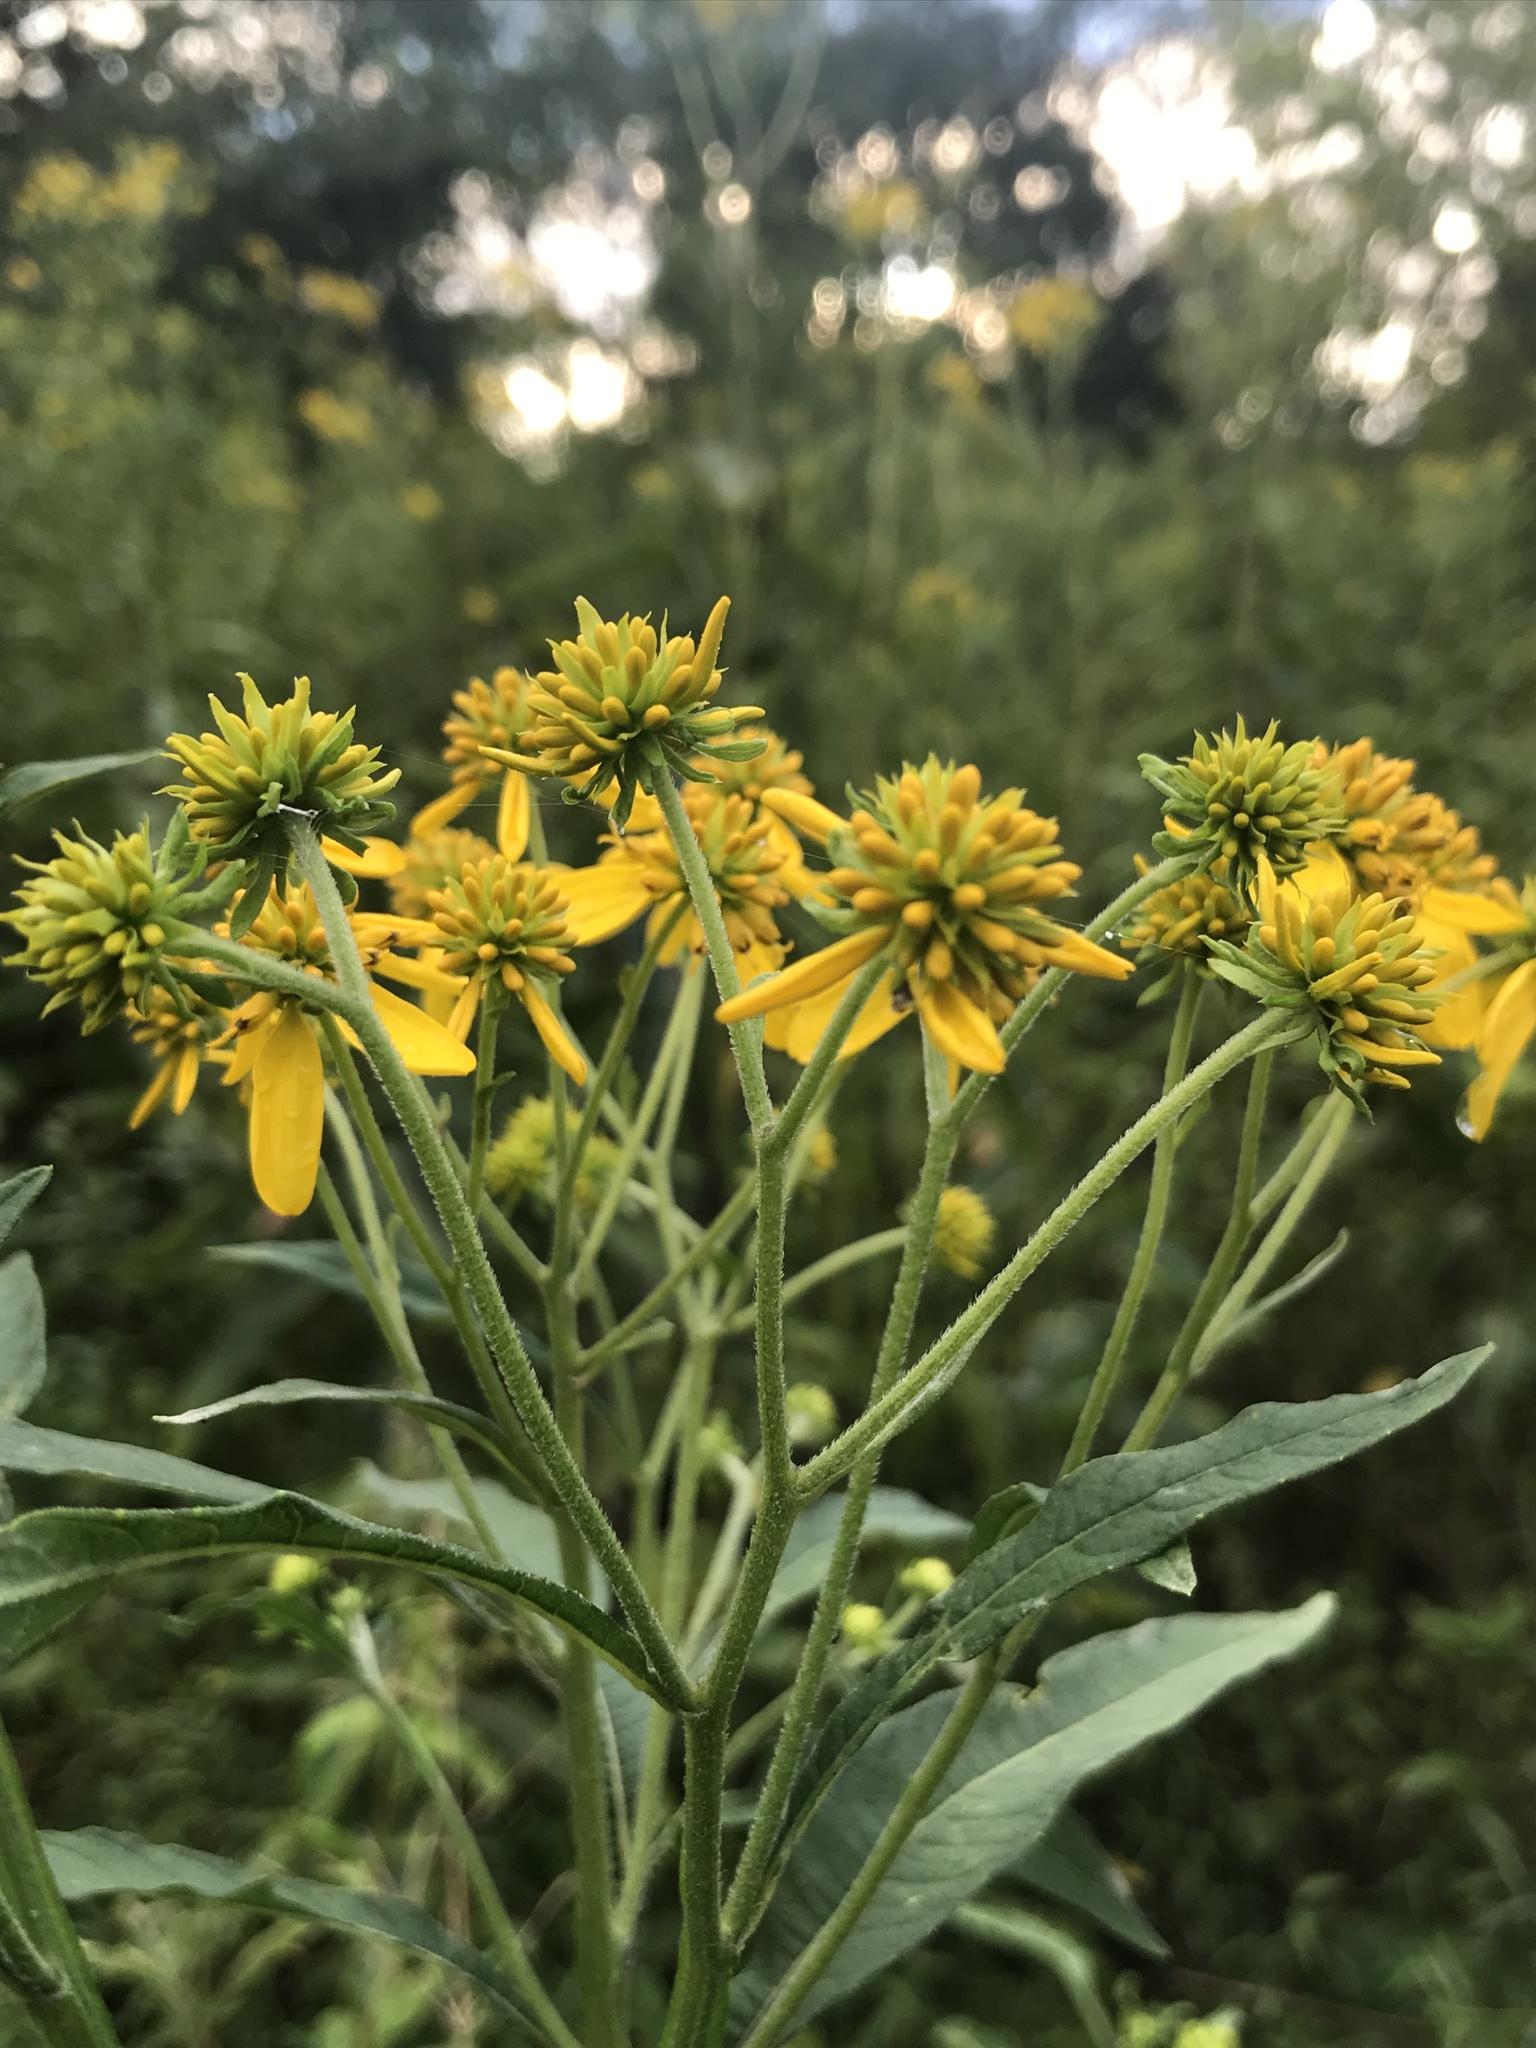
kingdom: Plantae
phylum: Tracheophyta
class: Magnoliopsida
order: Asterales
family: Asteraceae
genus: Verbesina
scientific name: Verbesina alternifolia
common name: Wingstem
